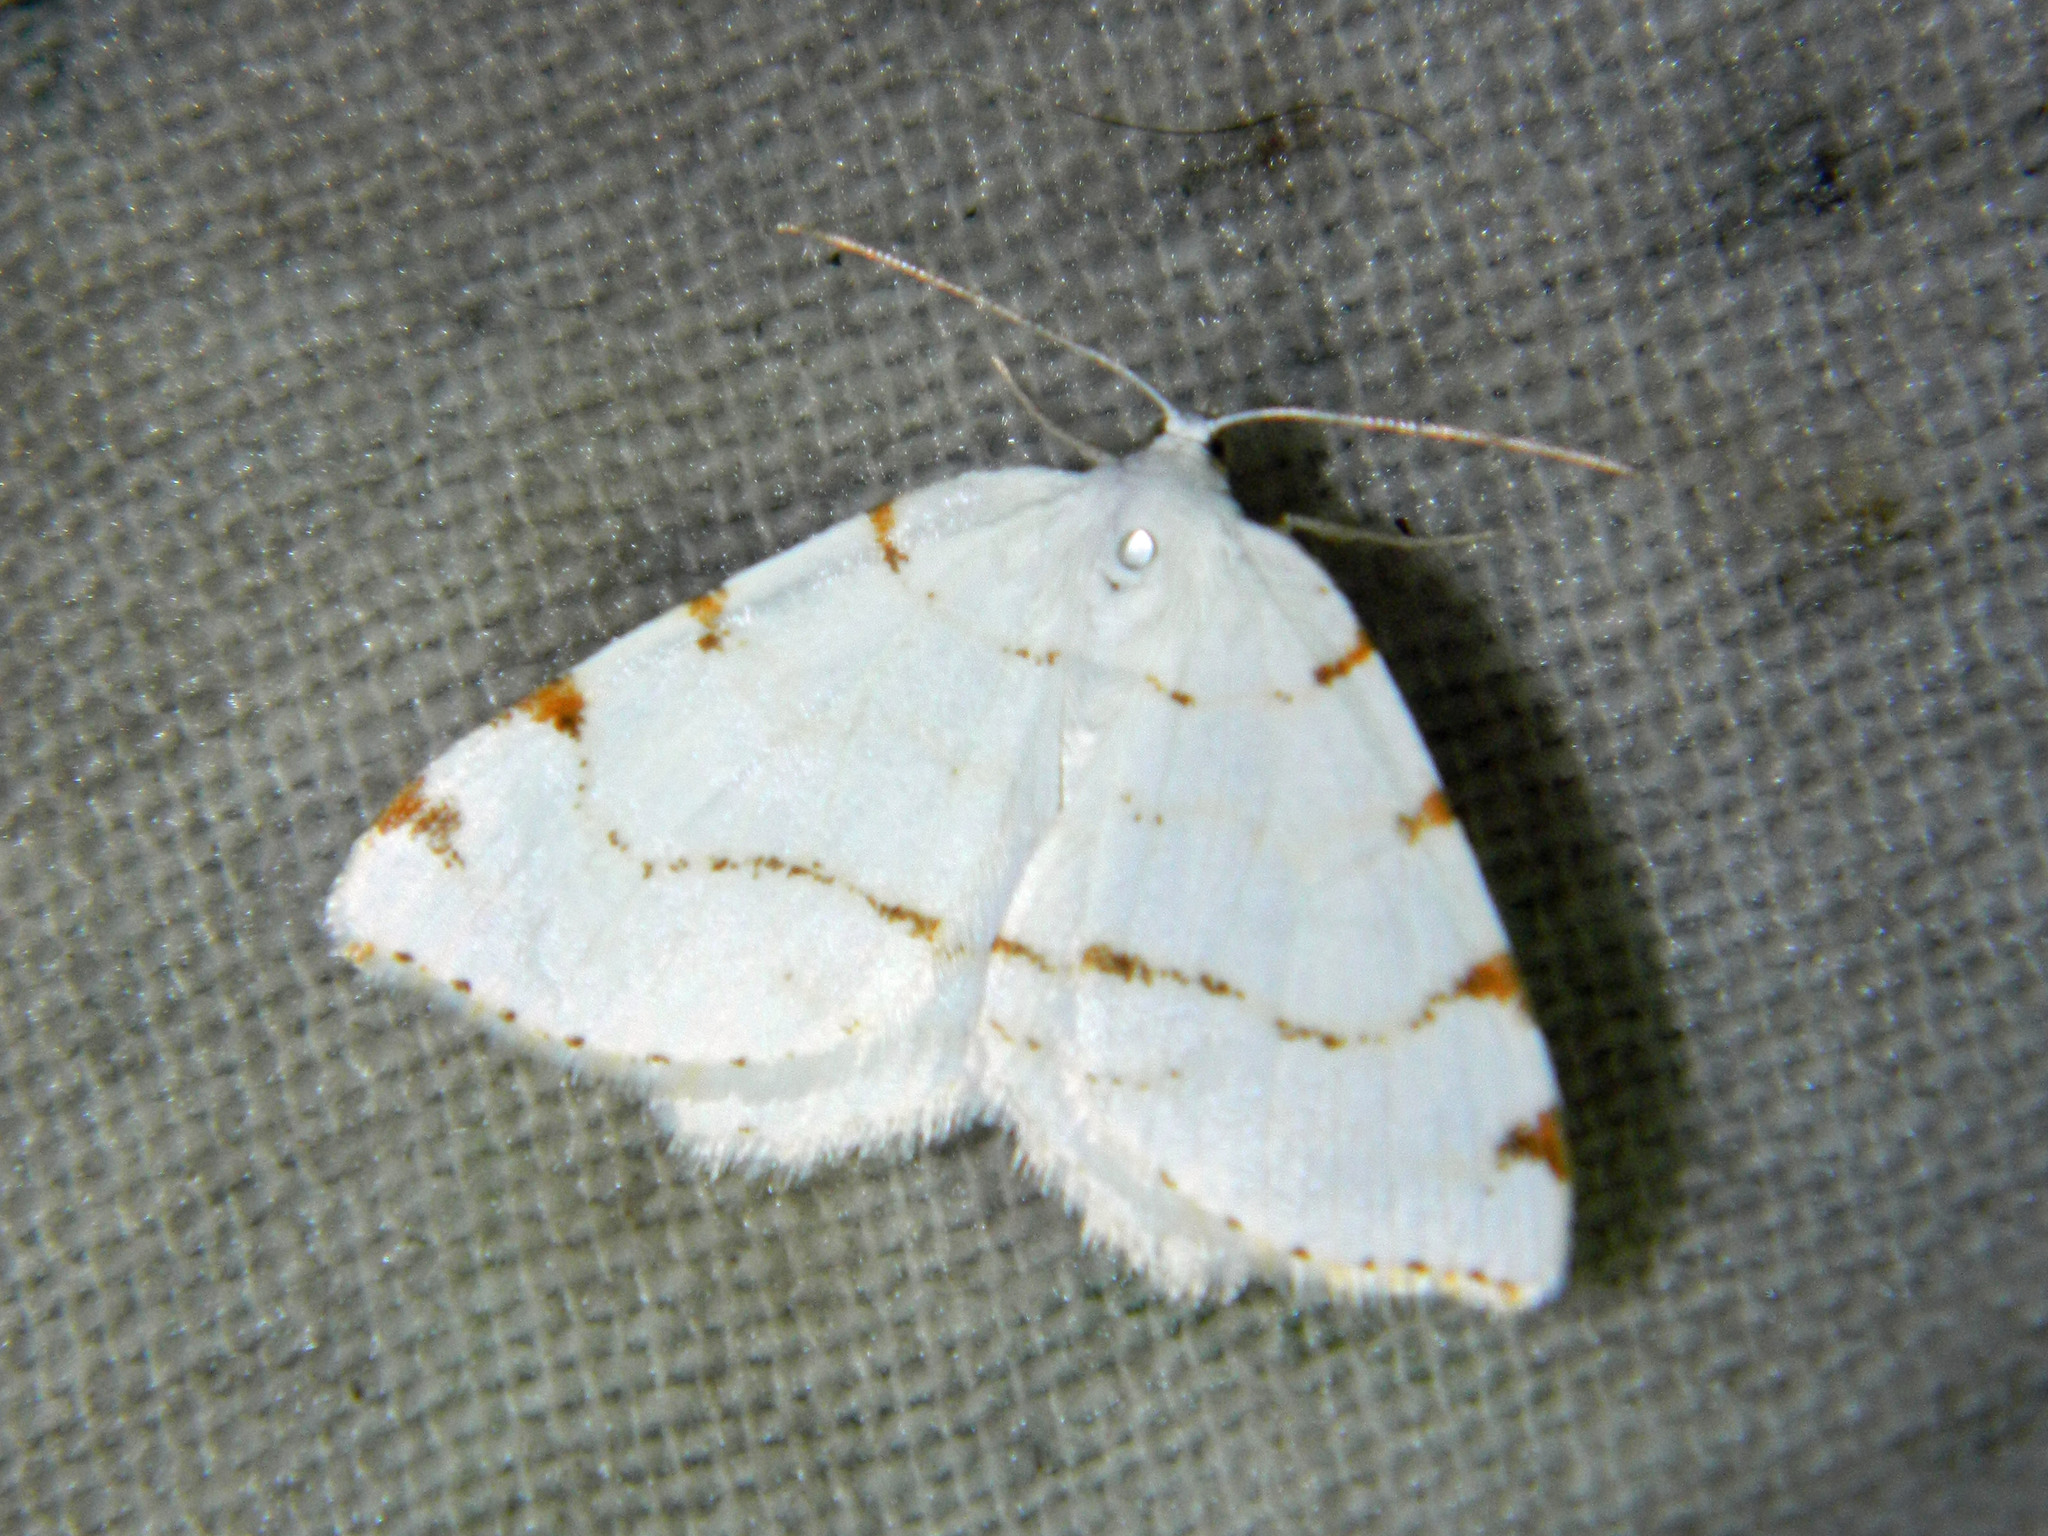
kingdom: Animalia
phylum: Arthropoda
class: Insecta
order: Lepidoptera
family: Geometridae
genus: Macaria
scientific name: Macaria pustularia
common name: Lesser maple spanworm moth
